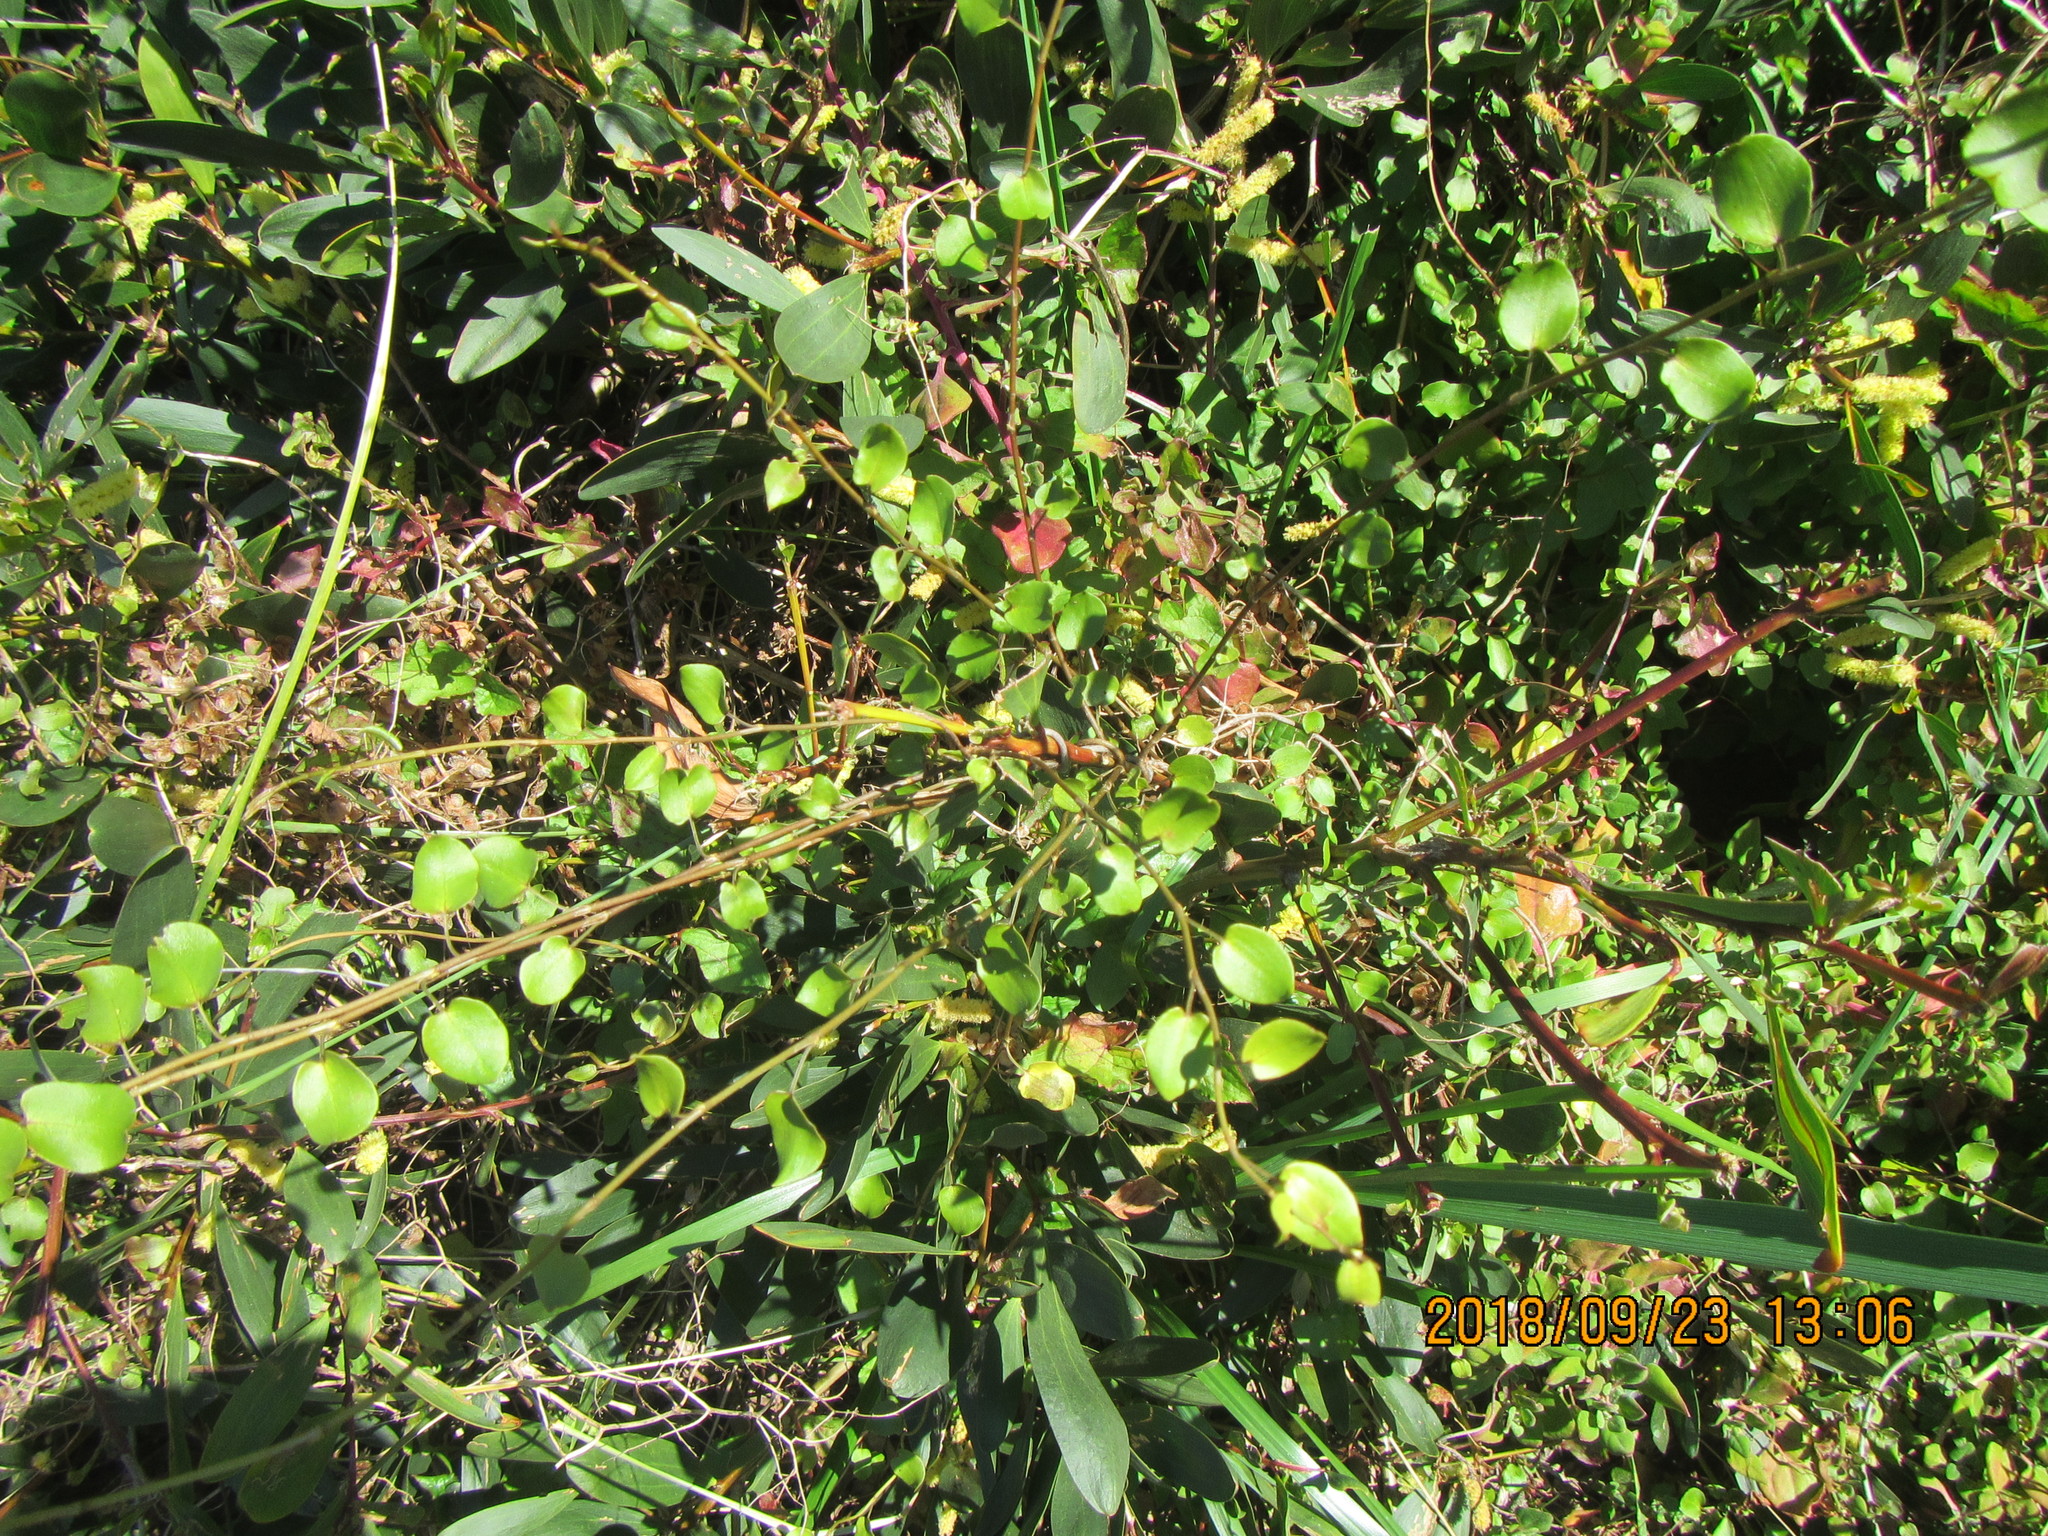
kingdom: Plantae
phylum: Tracheophyta
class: Magnoliopsida
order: Caryophyllales
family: Polygonaceae
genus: Muehlenbeckia
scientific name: Muehlenbeckia complexa
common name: Wireplant
